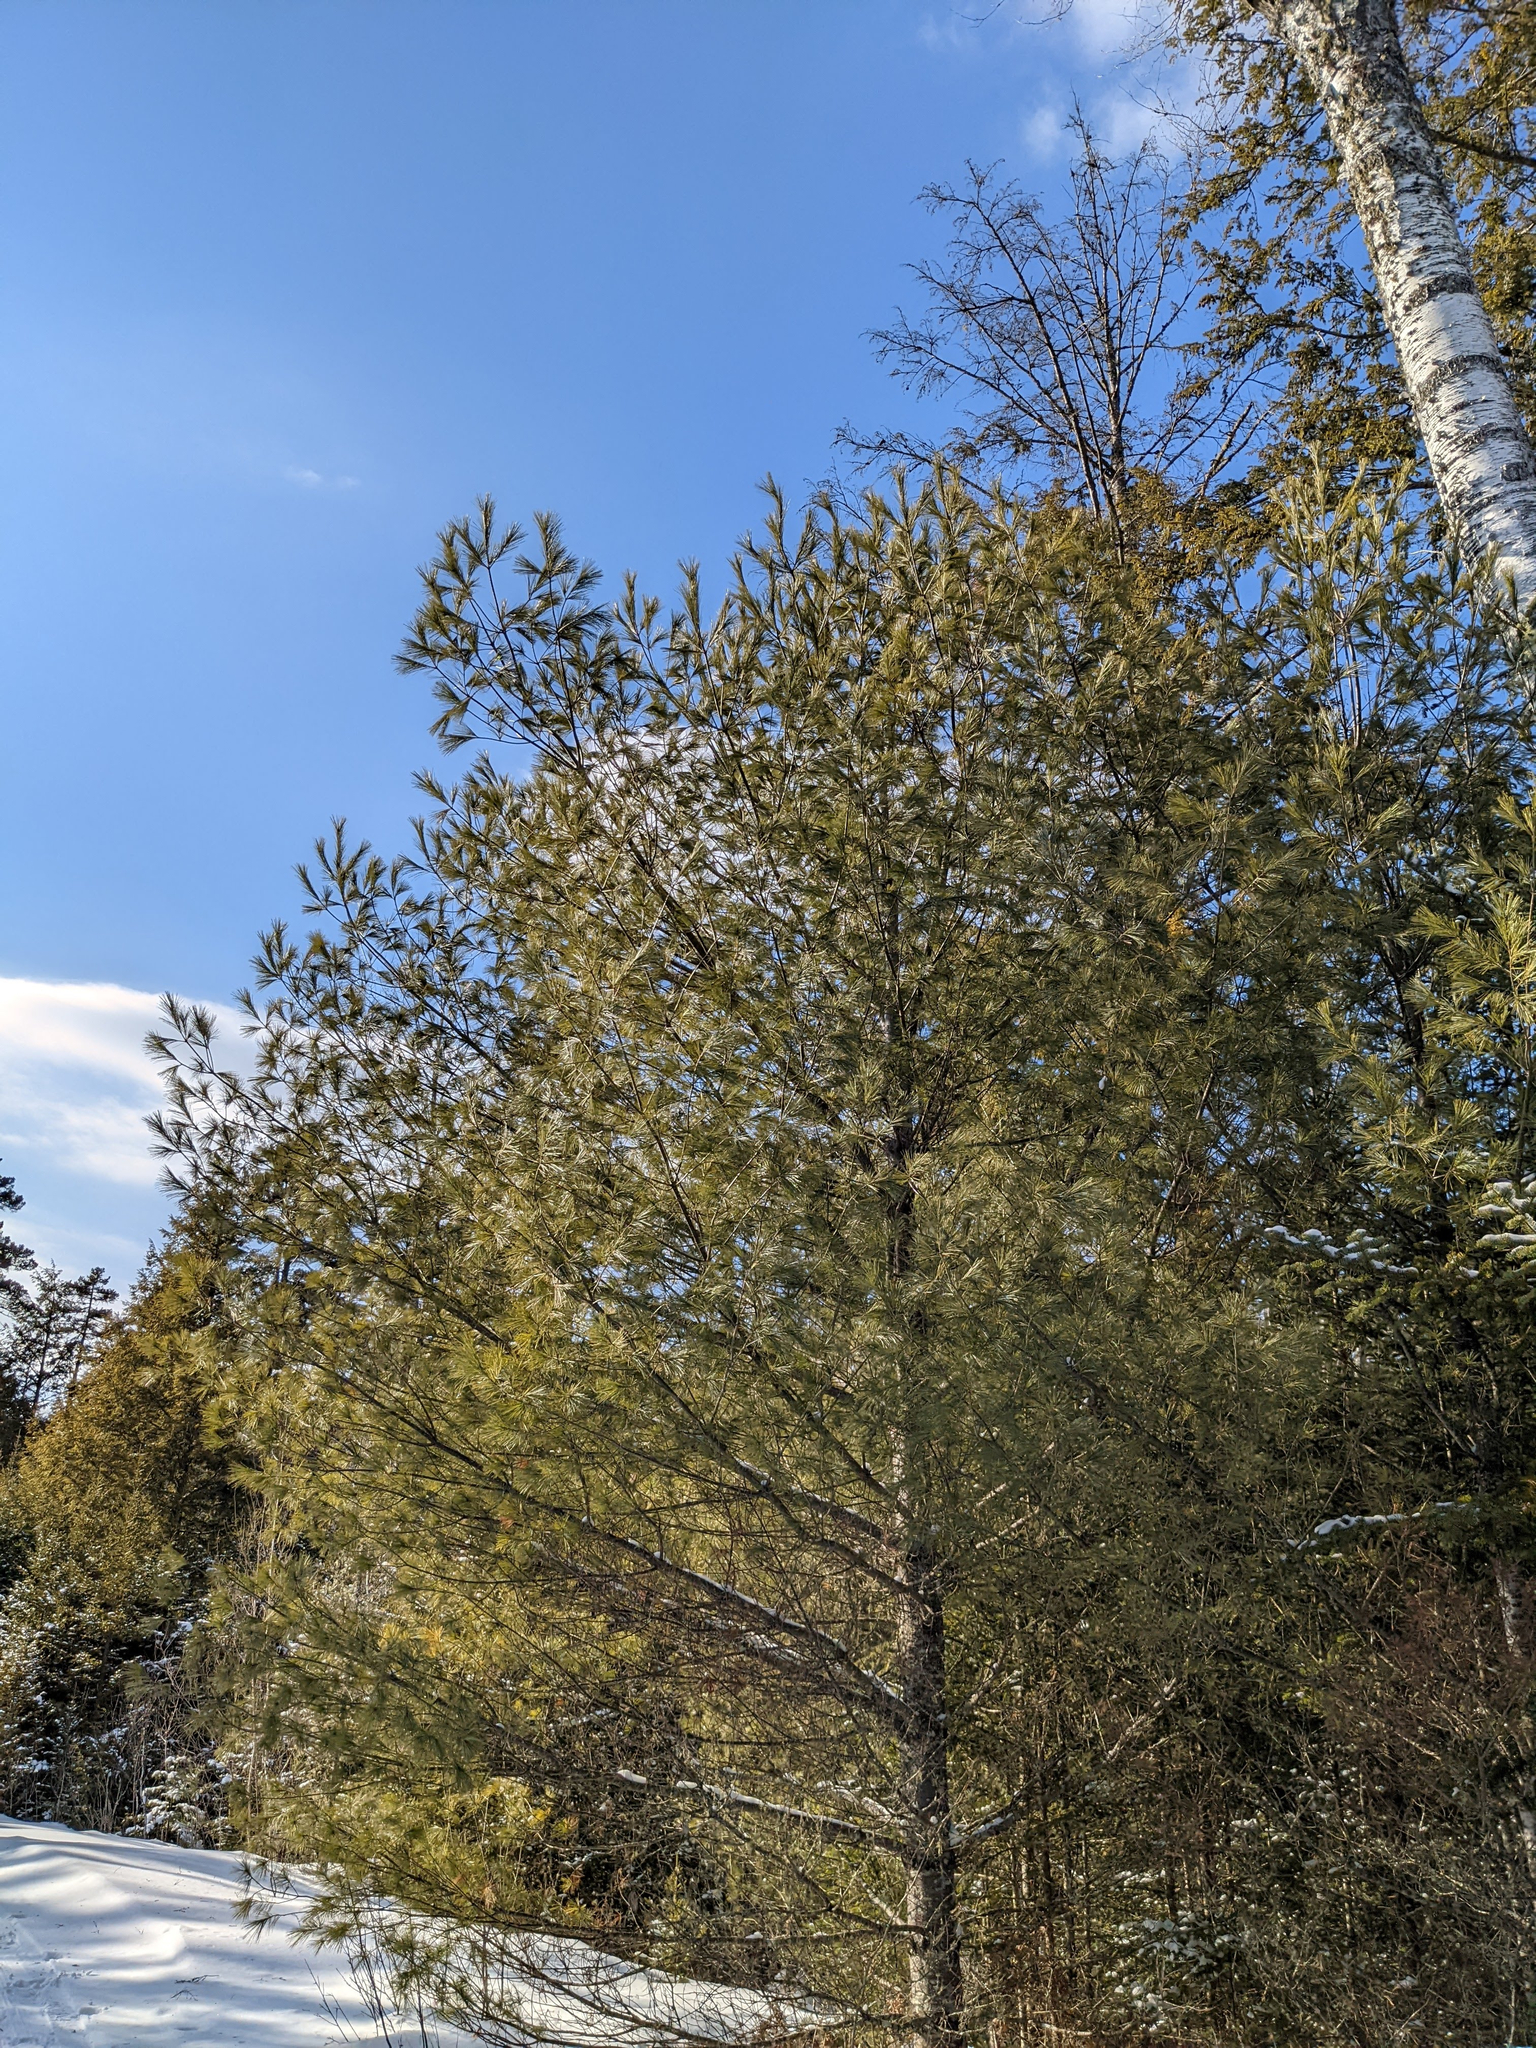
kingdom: Plantae
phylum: Tracheophyta
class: Pinopsida
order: Pinales
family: Pinaceae
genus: Pinus
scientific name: Pinus strobus
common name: Weymouth pine
